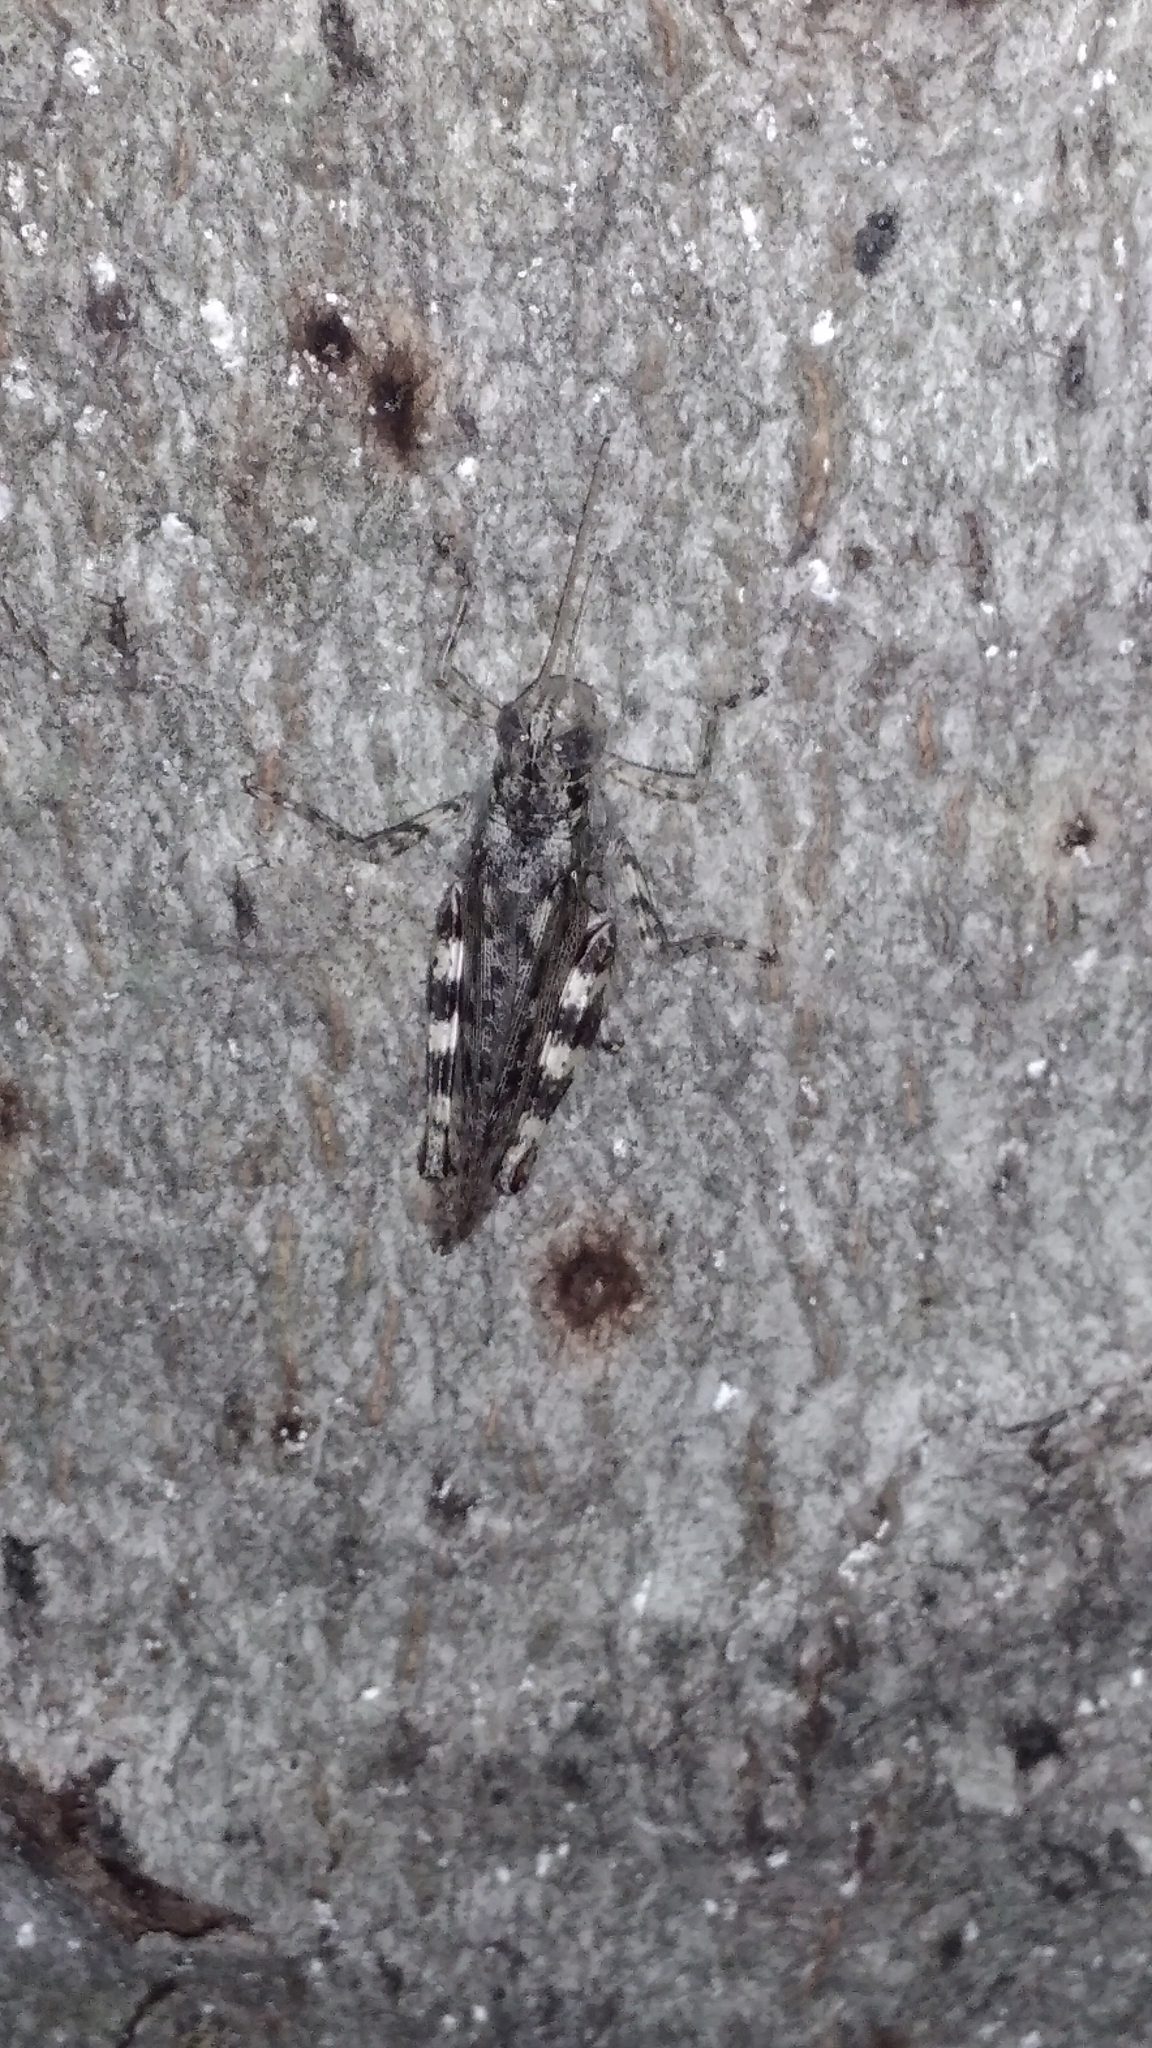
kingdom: Animalia
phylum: Arthropoda
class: Insecta
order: Orthoptera
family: Acrididae
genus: Melanoplus
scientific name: Melanoplus punctulatus
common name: Pine-tree spur-throat grasshopper
